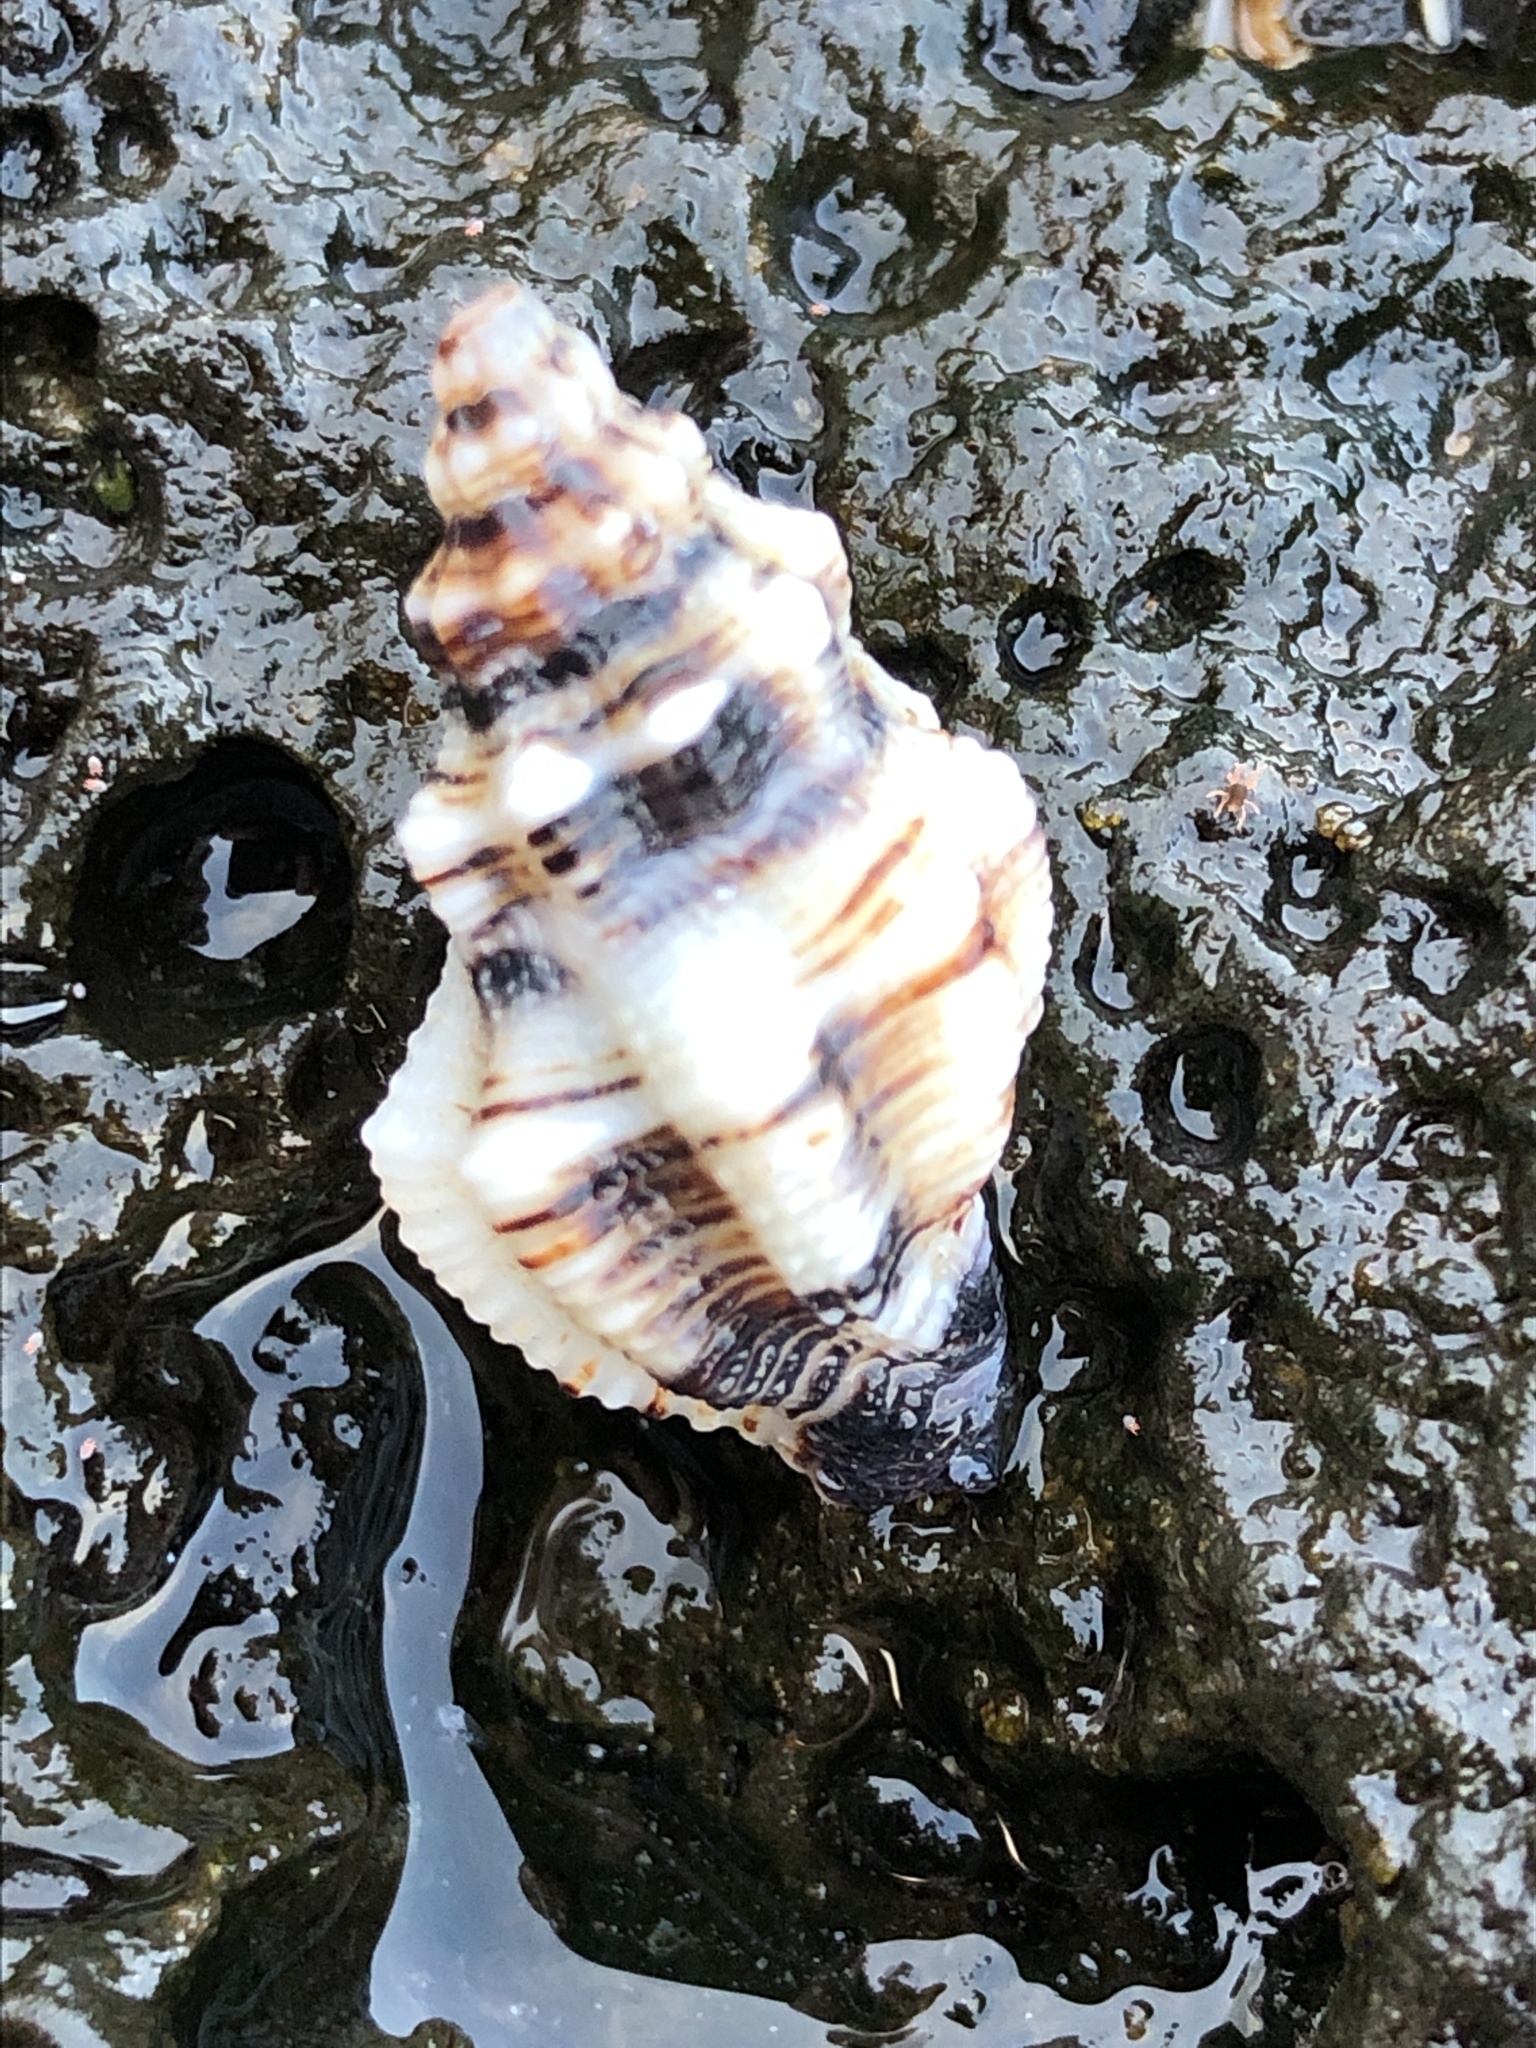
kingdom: Animalia
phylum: Mollusca
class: Gastropoda
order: Neogastropoda
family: Muricidae
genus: Ergalatax
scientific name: Ergalatax contracta
